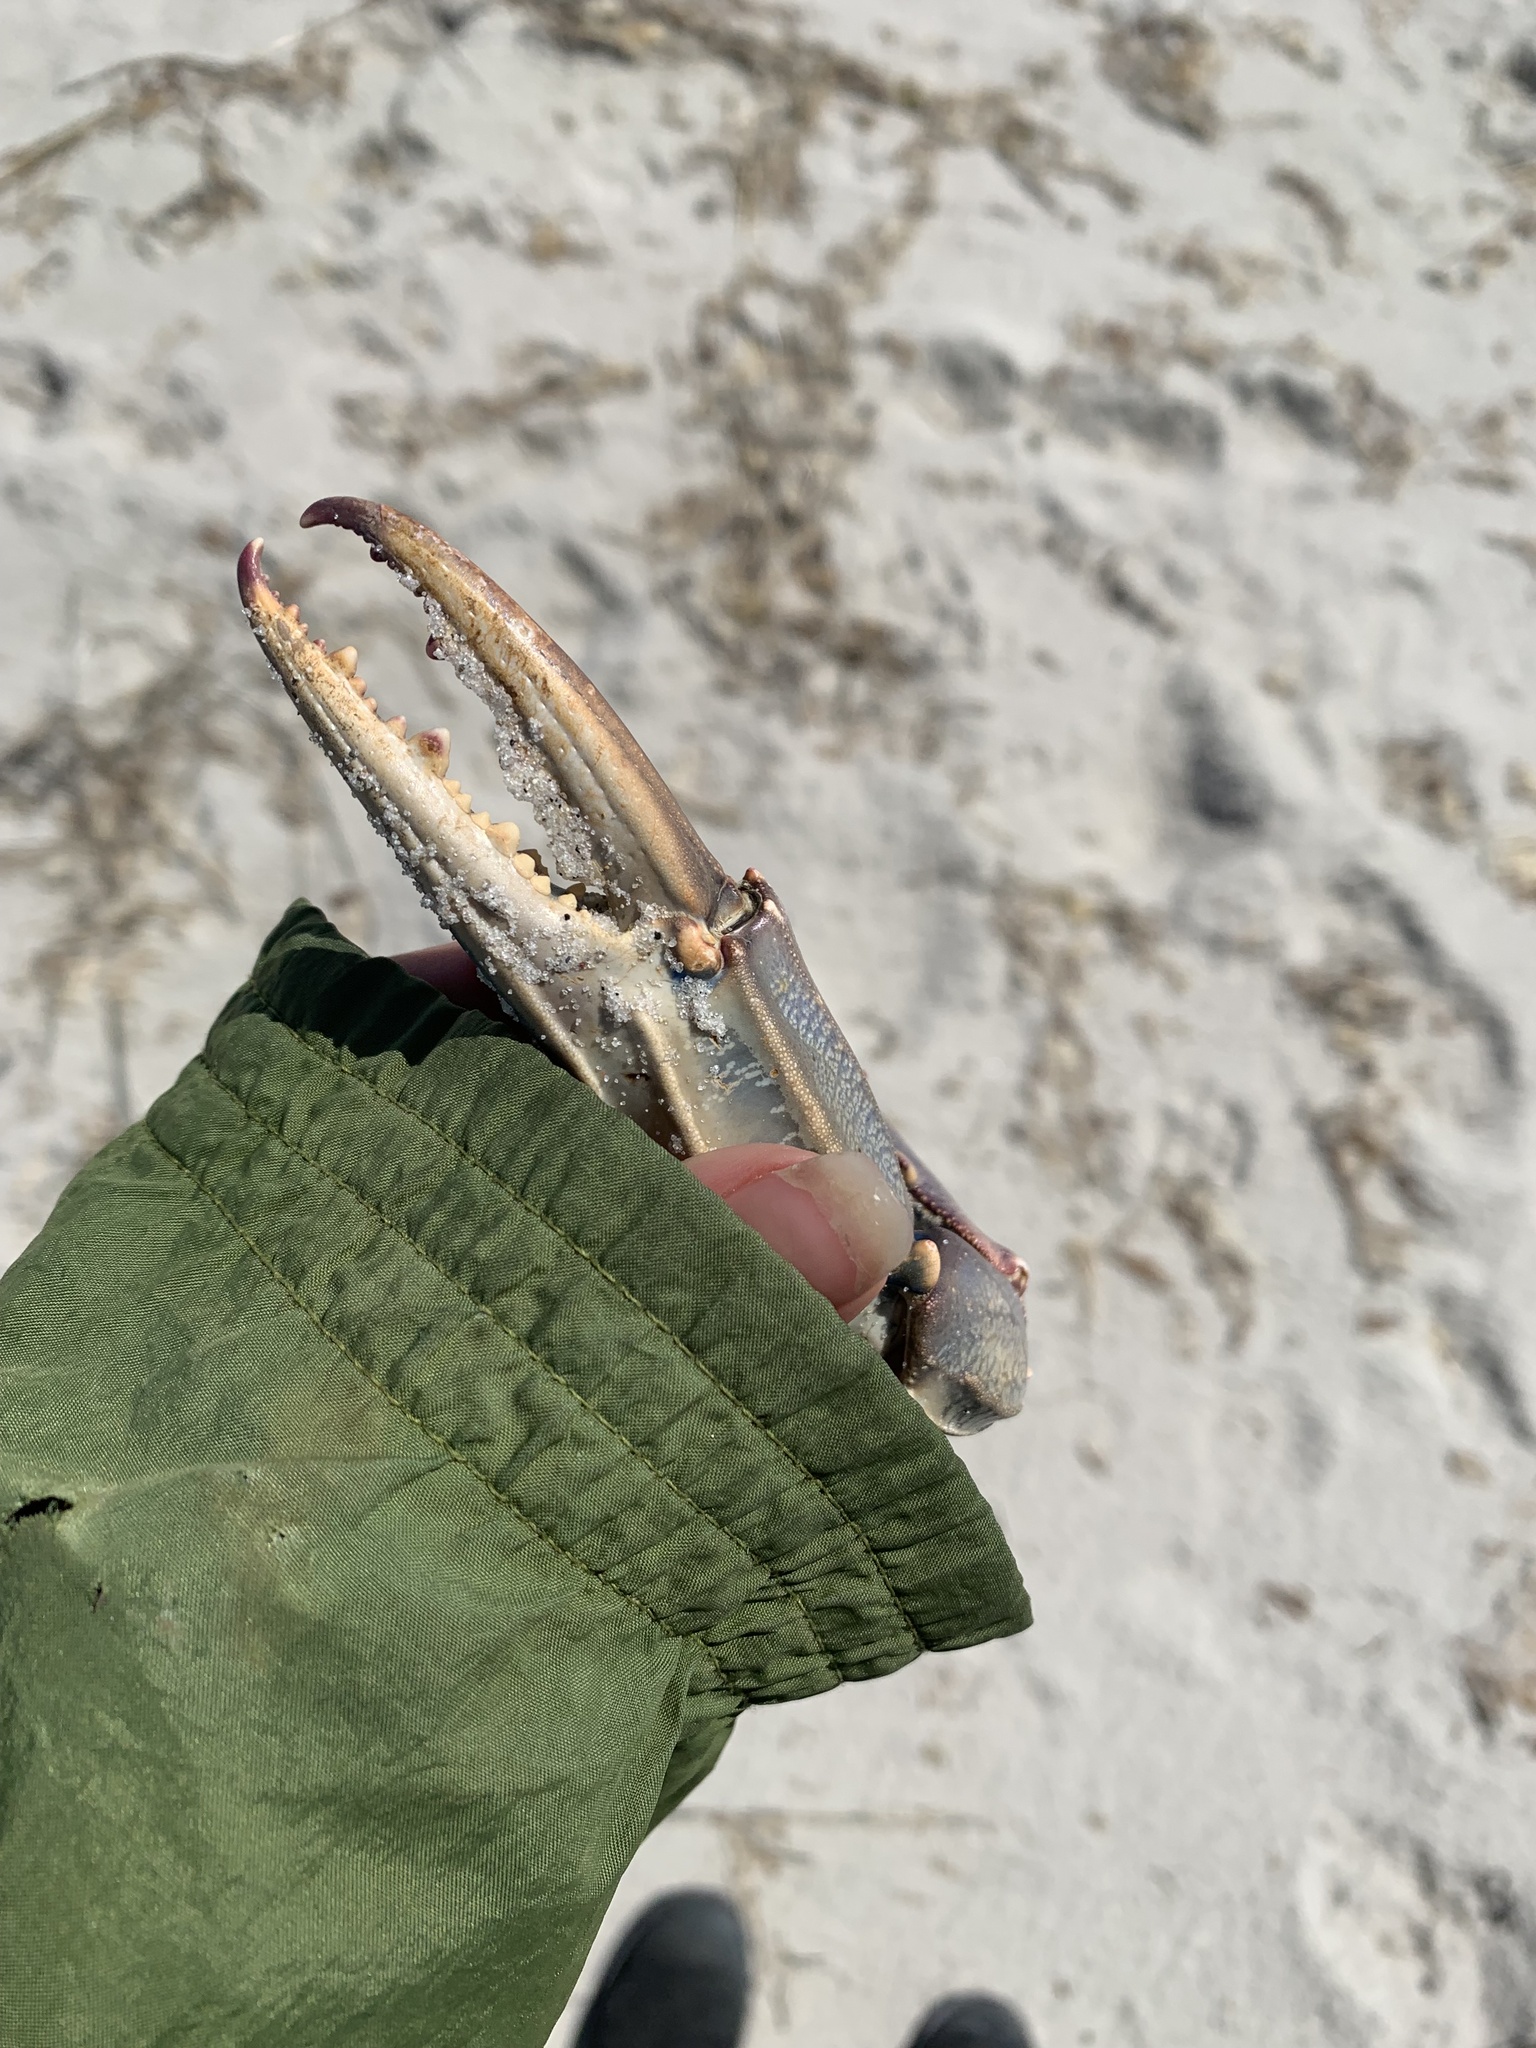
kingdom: Animalia
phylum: Arthropoda
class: Malacostraca
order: Decapoda
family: Portunidae
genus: Callinectes
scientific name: Callinectes sapidus
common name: Blue crab
